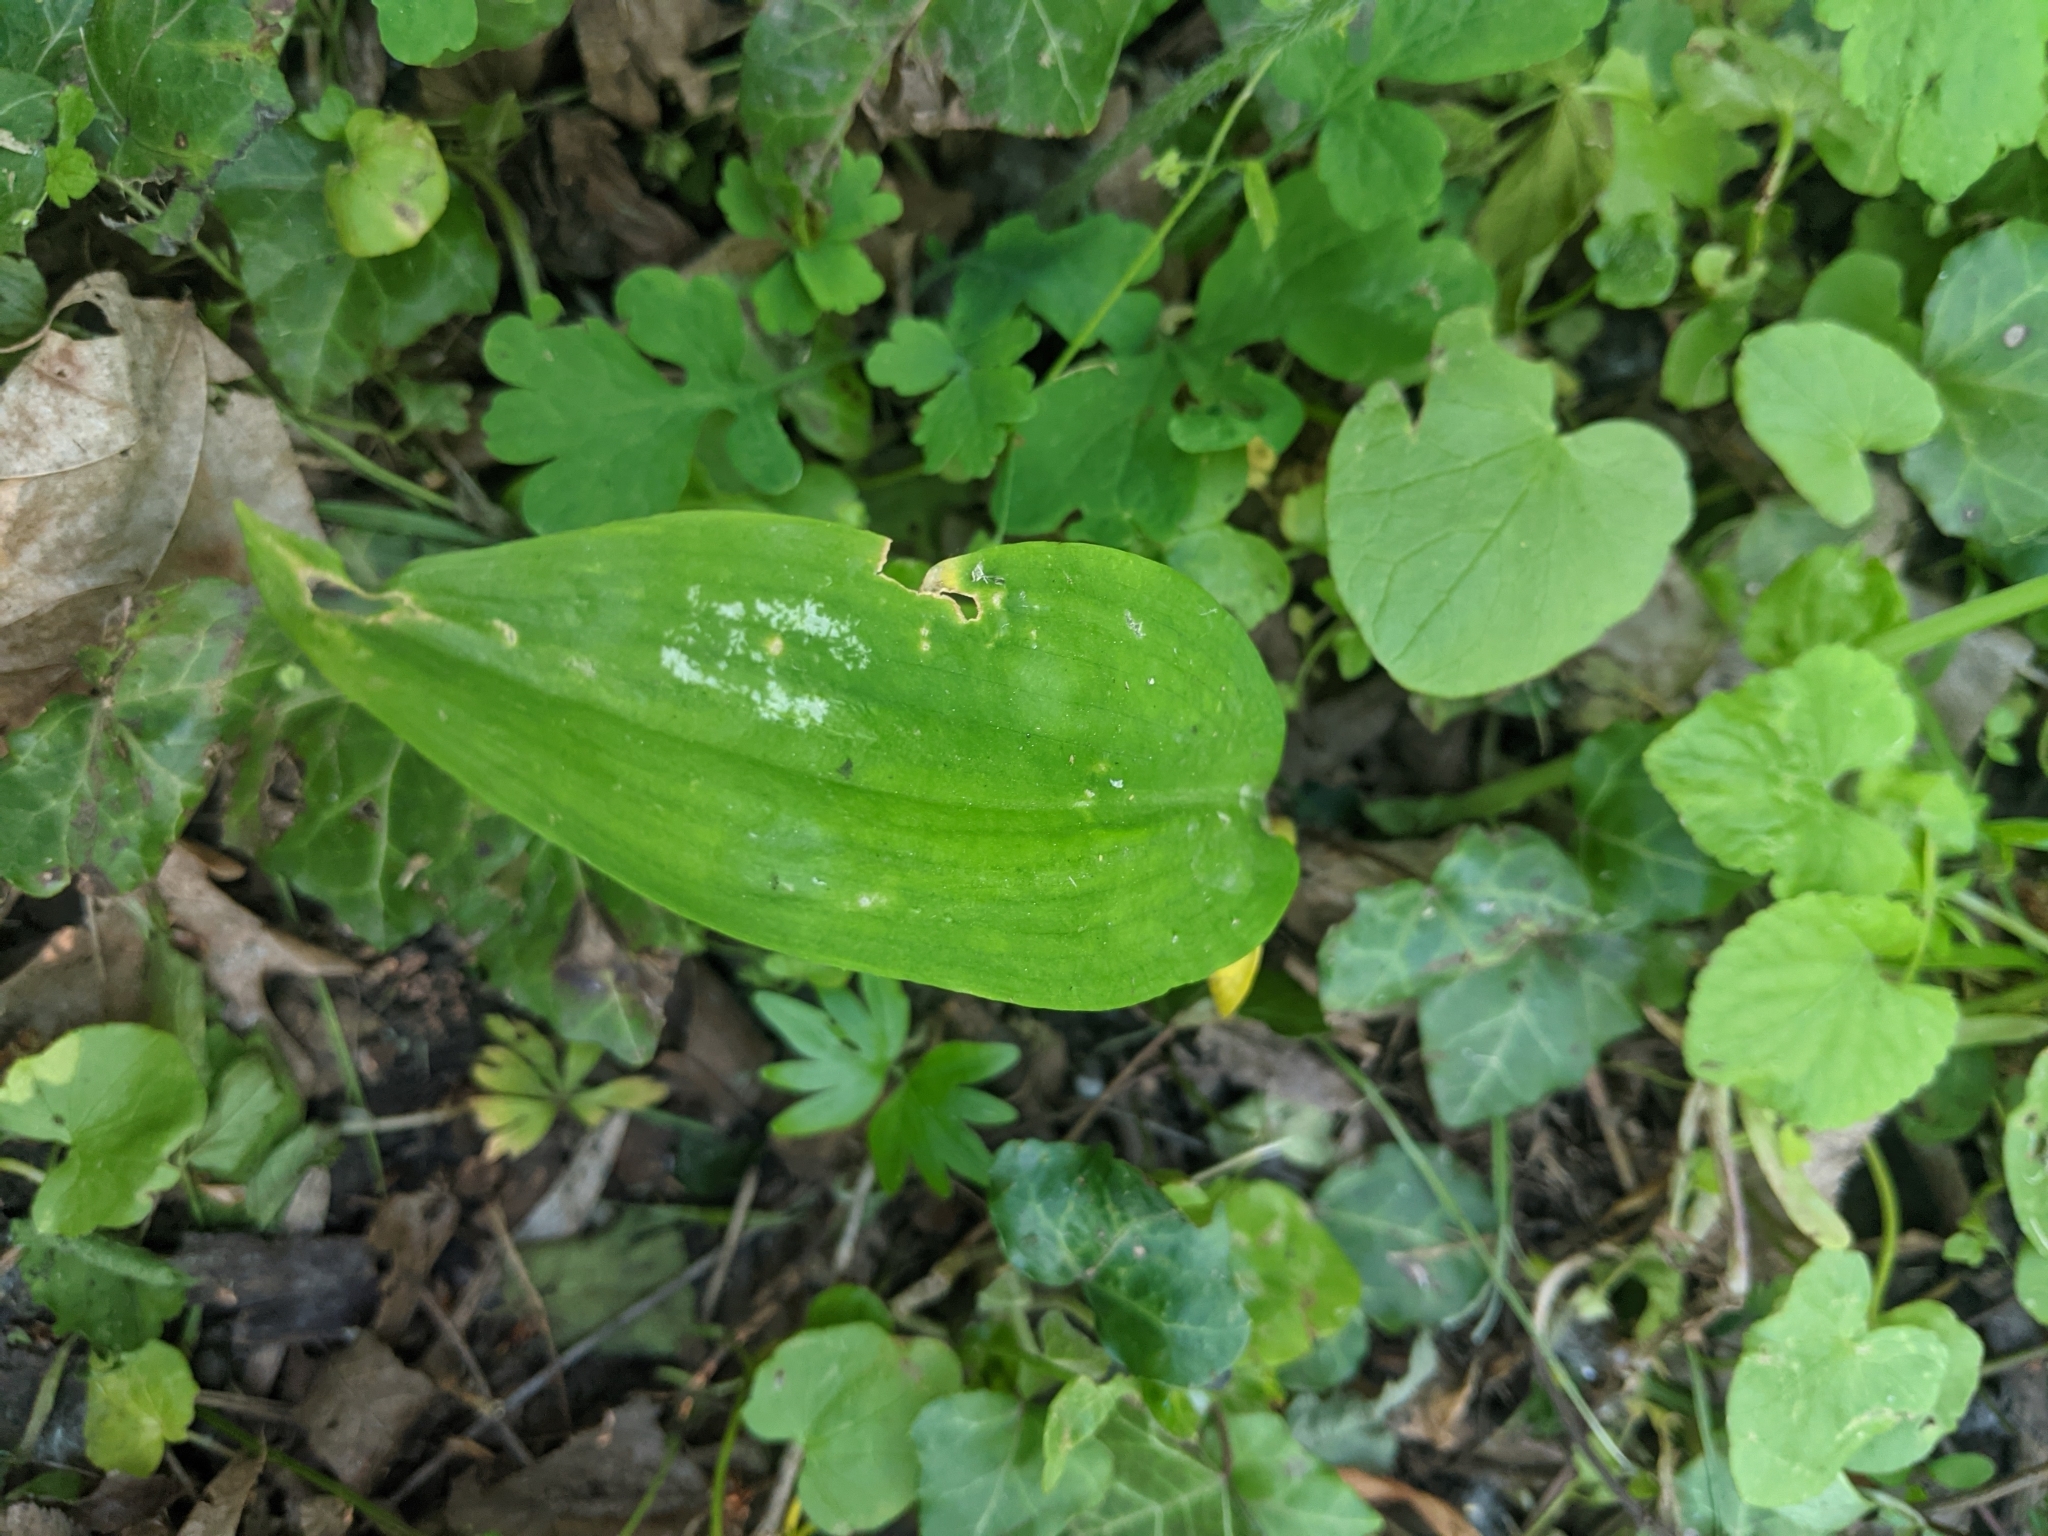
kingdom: Plantae
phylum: Tracheophyta
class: Liliopsida
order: Asparagales
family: Amaryllidaceae
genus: Allium
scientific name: Allium ursinum
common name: Ramsons
